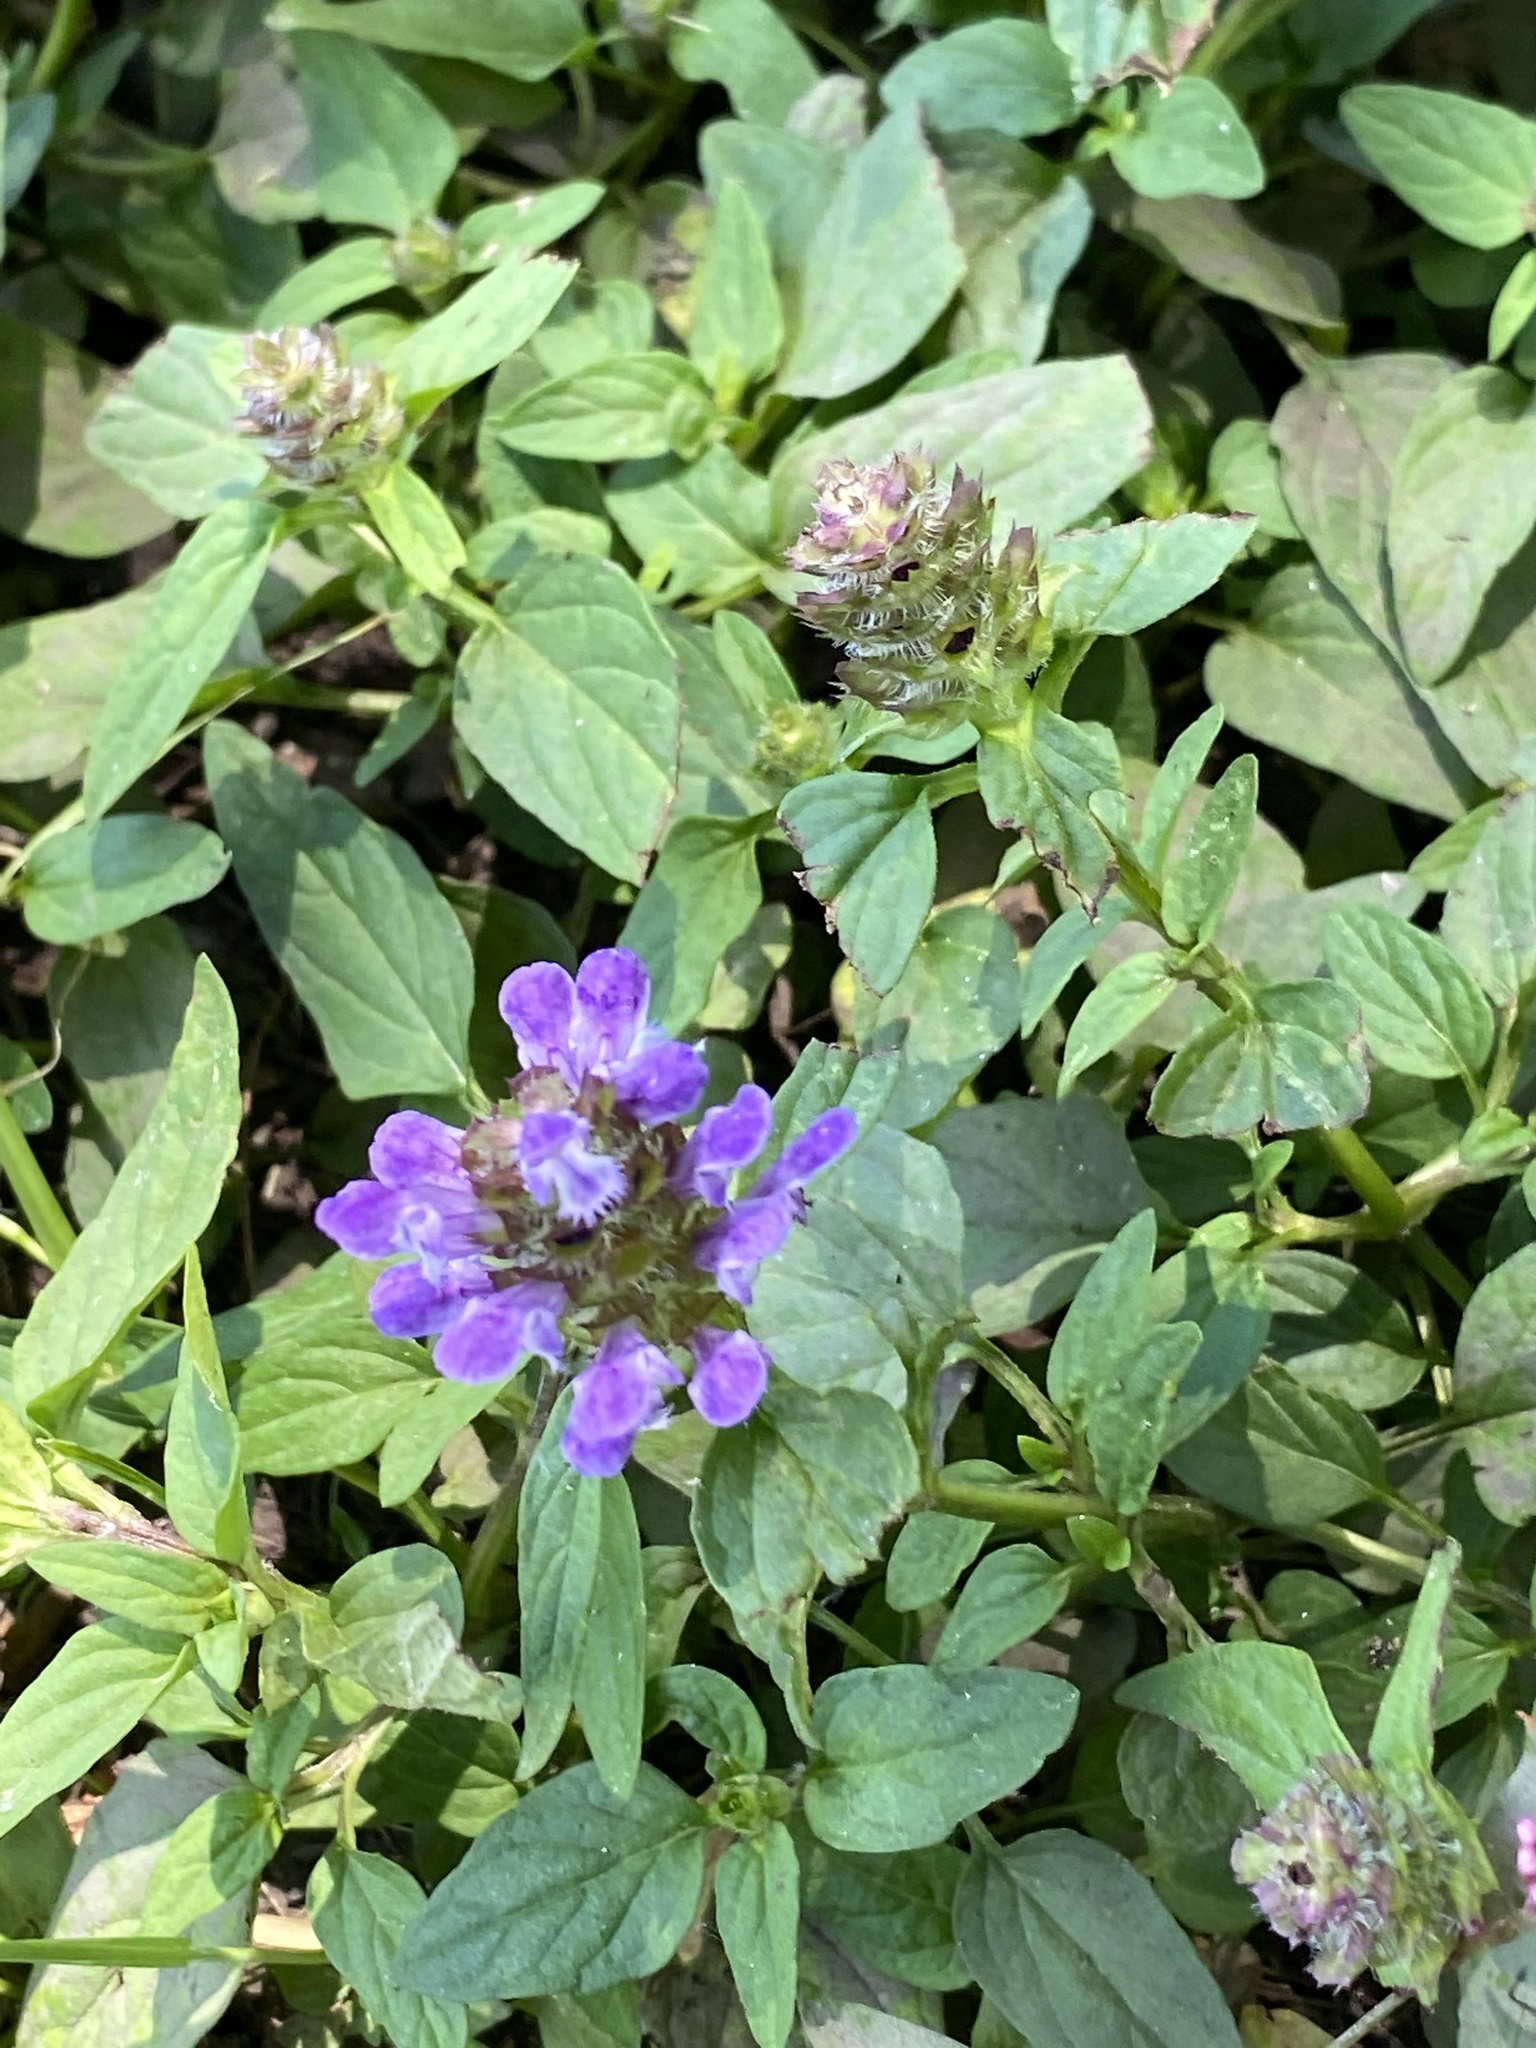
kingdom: Plantae
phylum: Tracheophyta
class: Magnoliopsida
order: Lamiales
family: Lamiaceae
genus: Prunella
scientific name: Prunella vulgaris
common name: Heal-all
